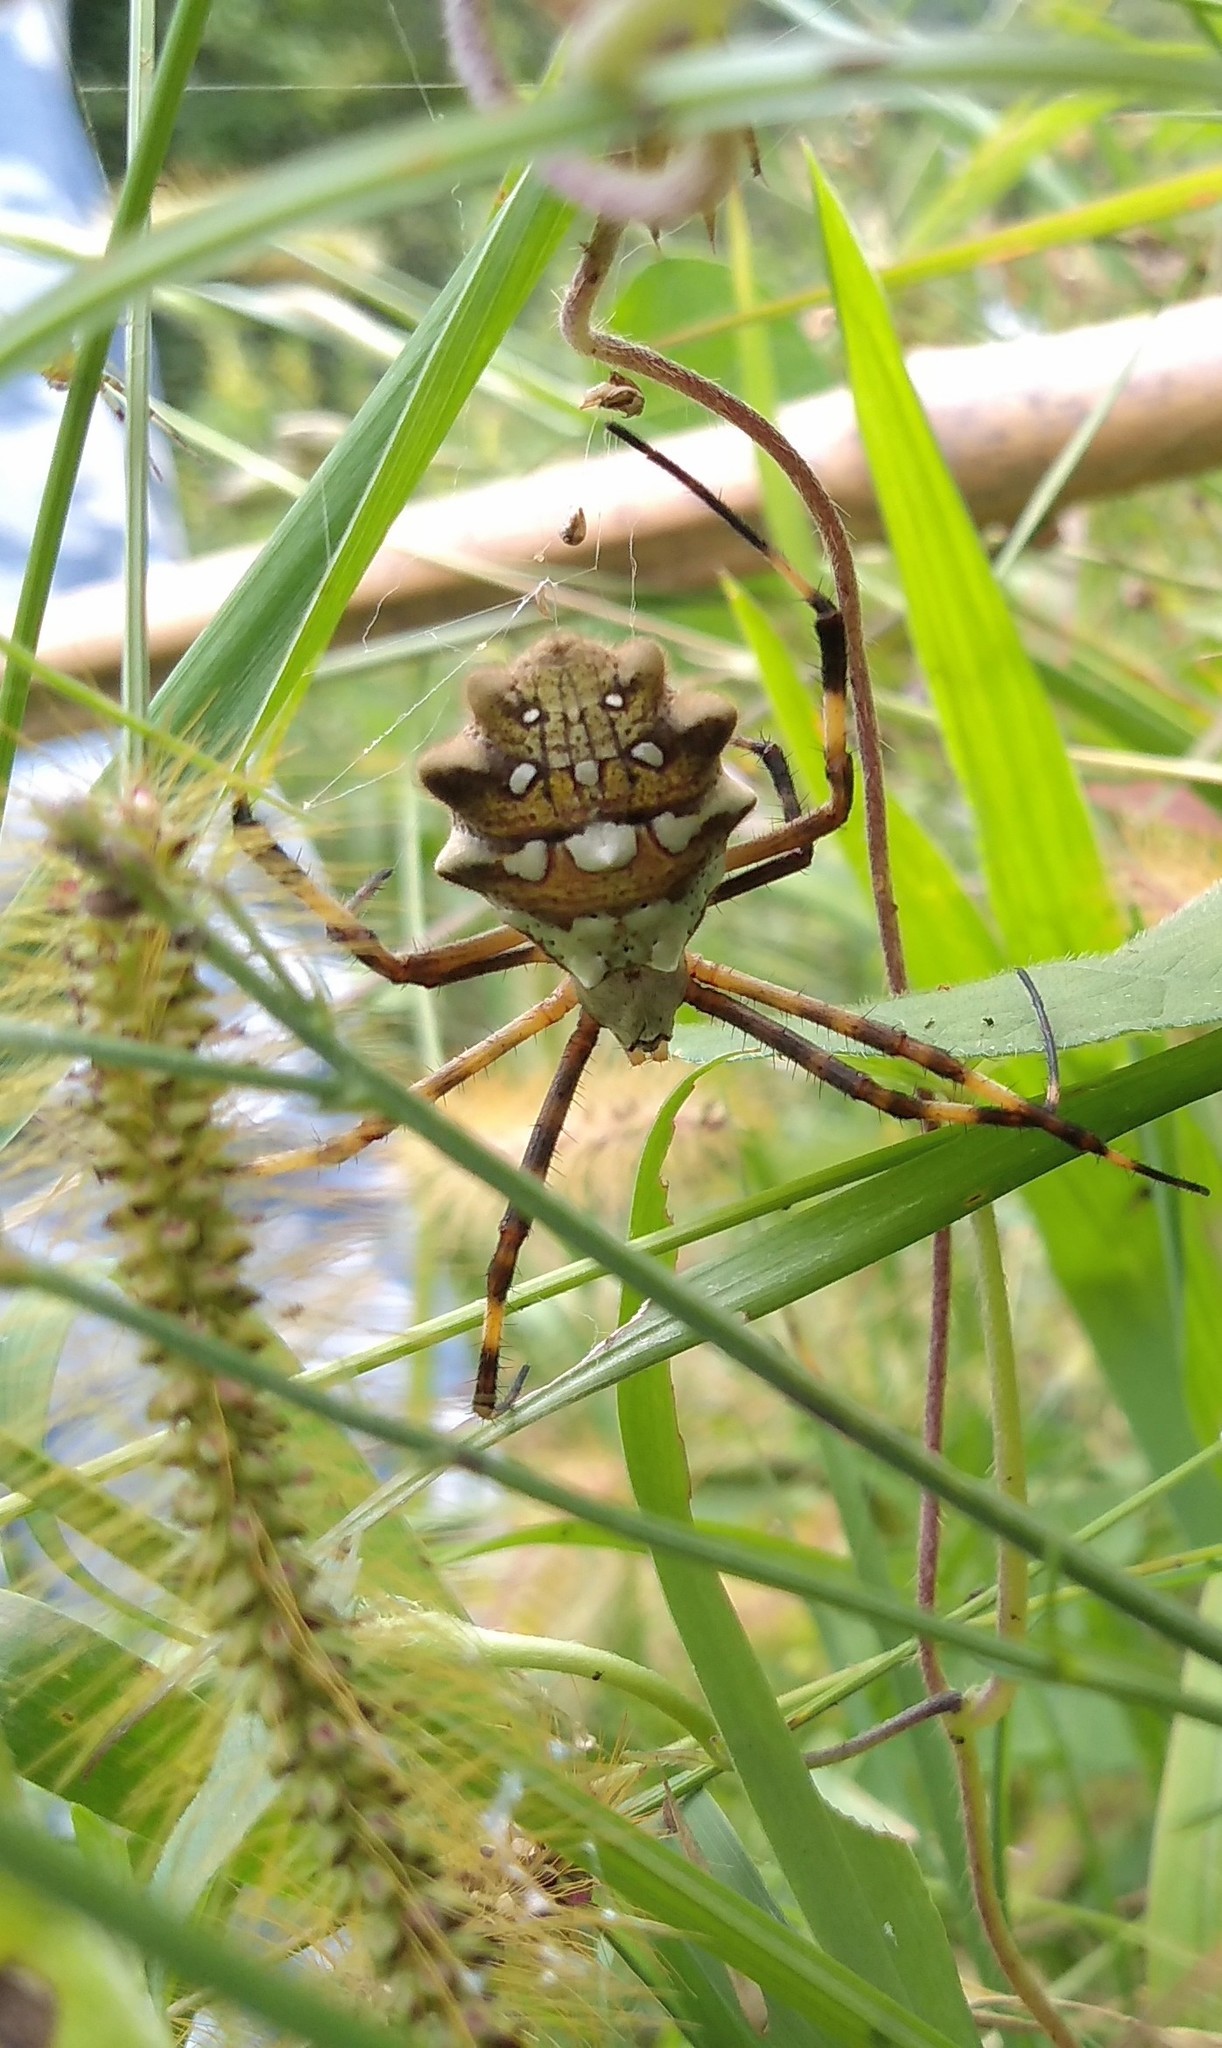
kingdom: Animalia
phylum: Arthropoda
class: Arachnida
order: Araneae
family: Araneidae
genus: Argiope
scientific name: Argiope argentata
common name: Orb weavers
